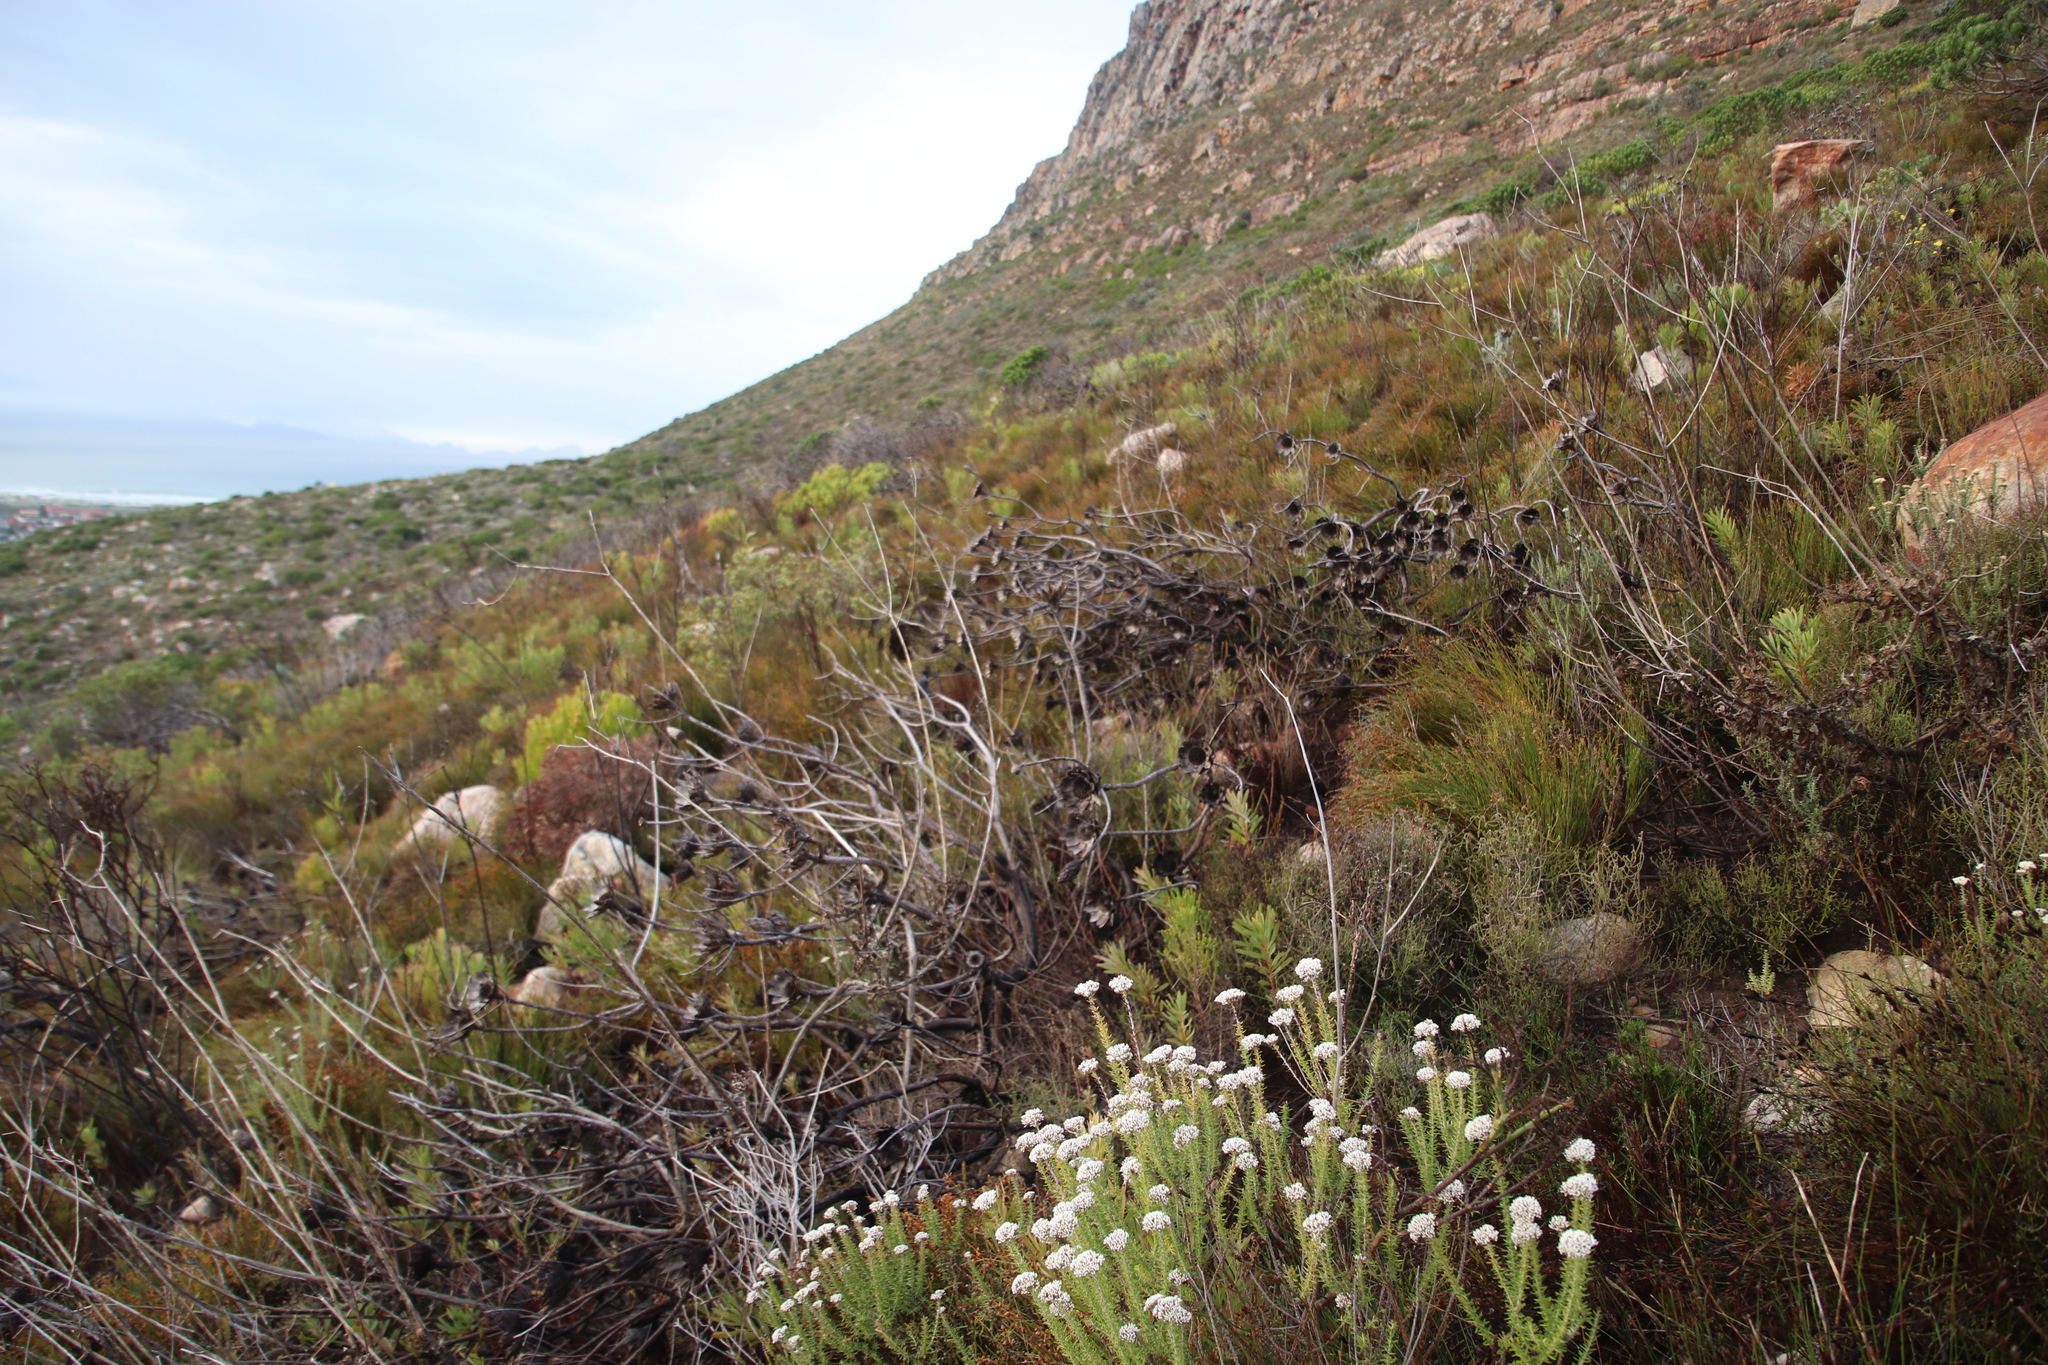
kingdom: Plantae
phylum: Tracheophyta
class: Magnoliopsida
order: Proteales
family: Proteaceae
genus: Protea
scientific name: Protea repens
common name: Sugarbush
